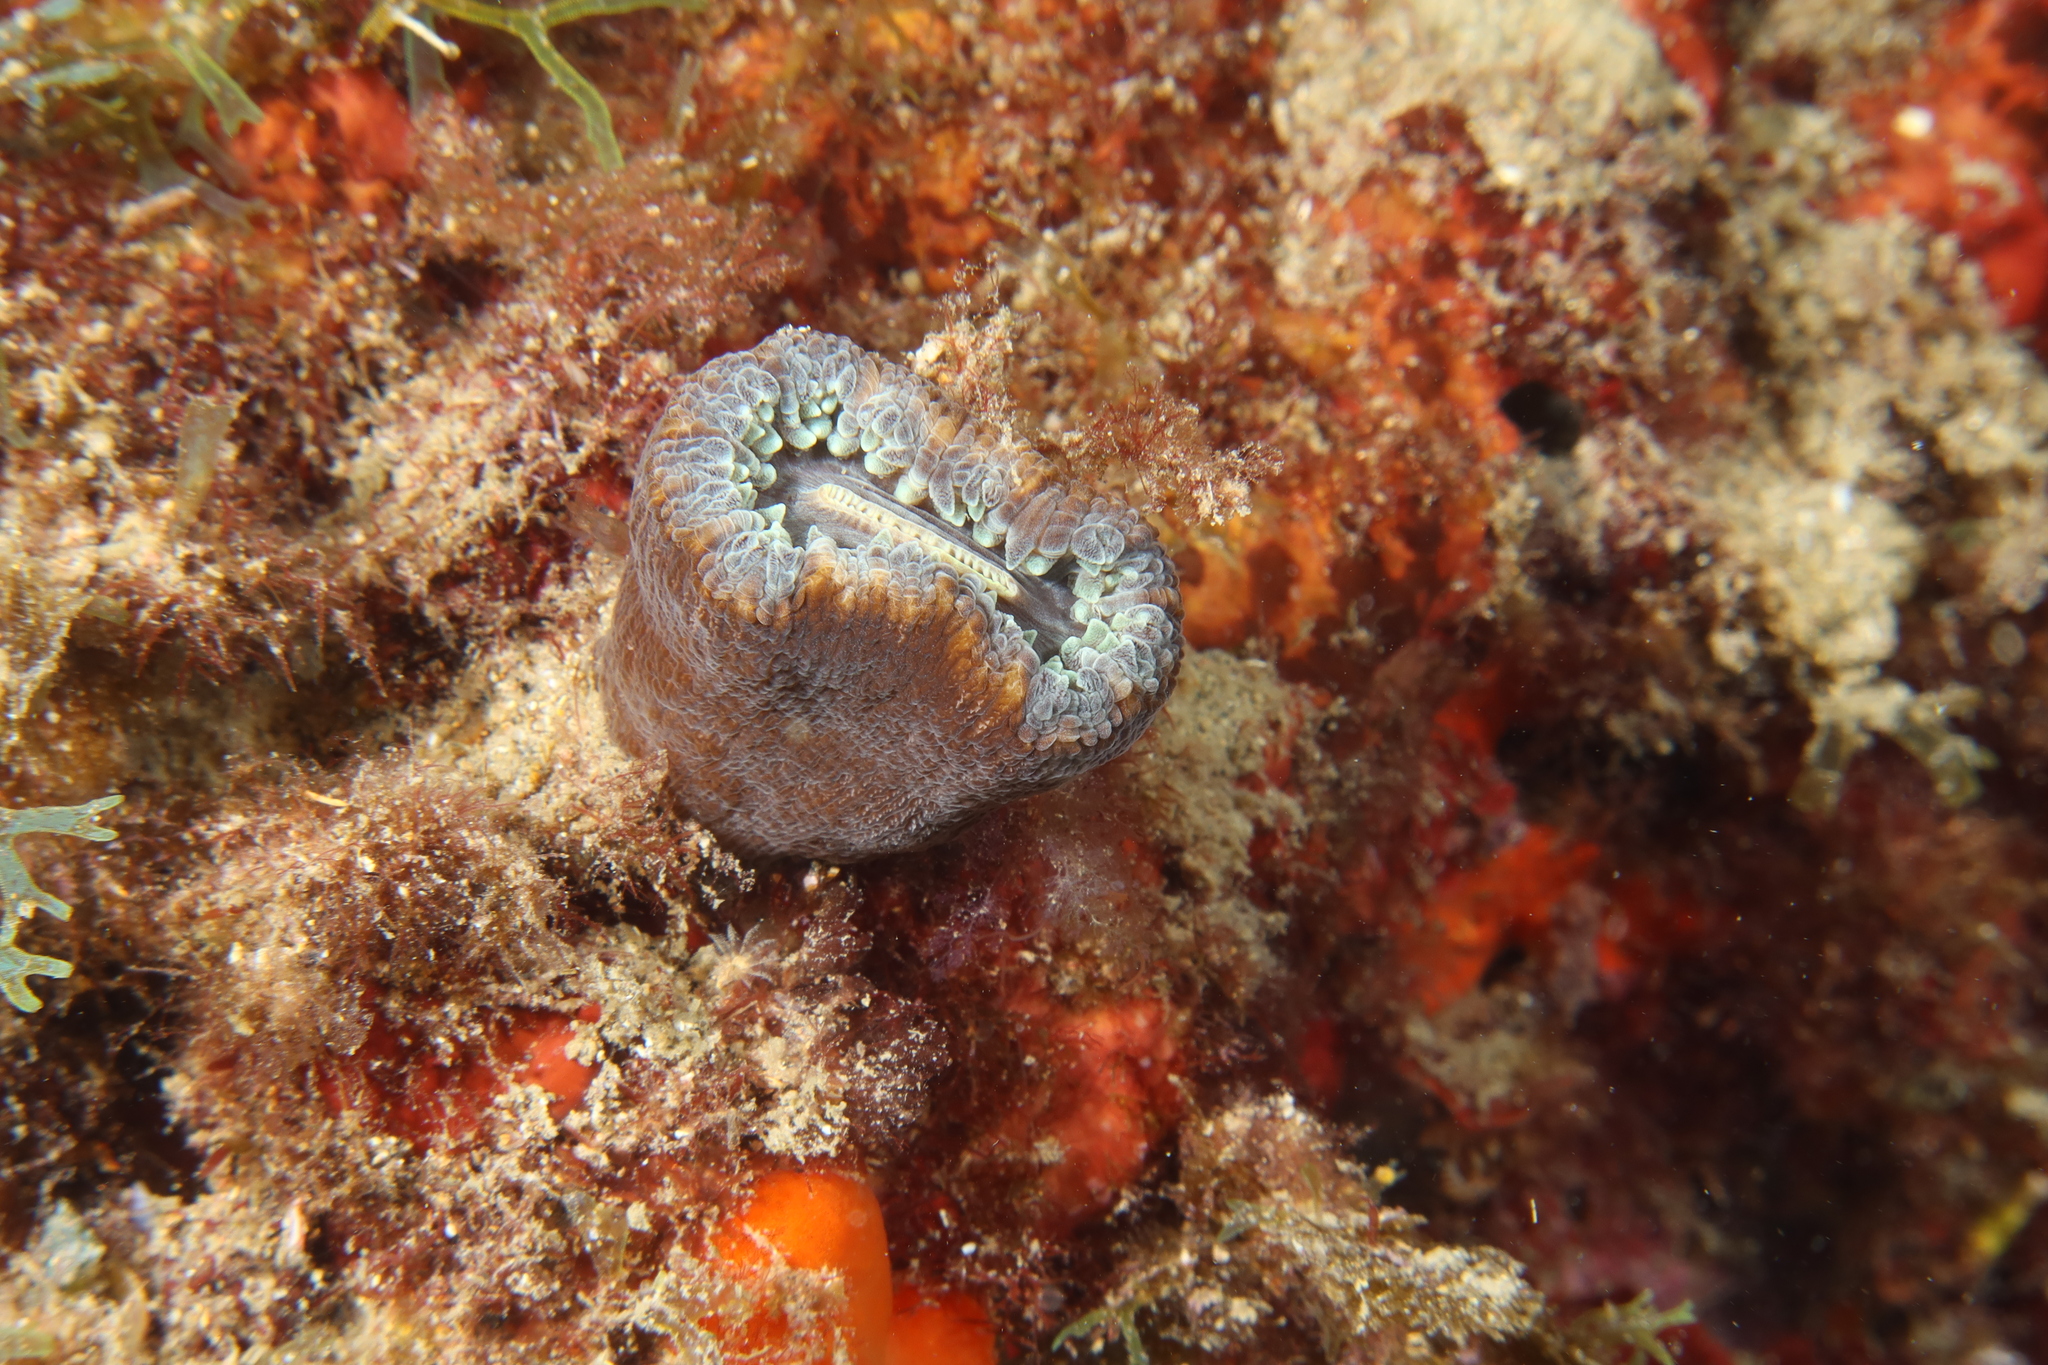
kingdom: Animalia
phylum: Cnidaria
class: Anthozoa
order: Scleractinia
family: Dendrophylliidae
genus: Balanophyllia
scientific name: Balanophyllia europaea
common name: Scarlet coral
